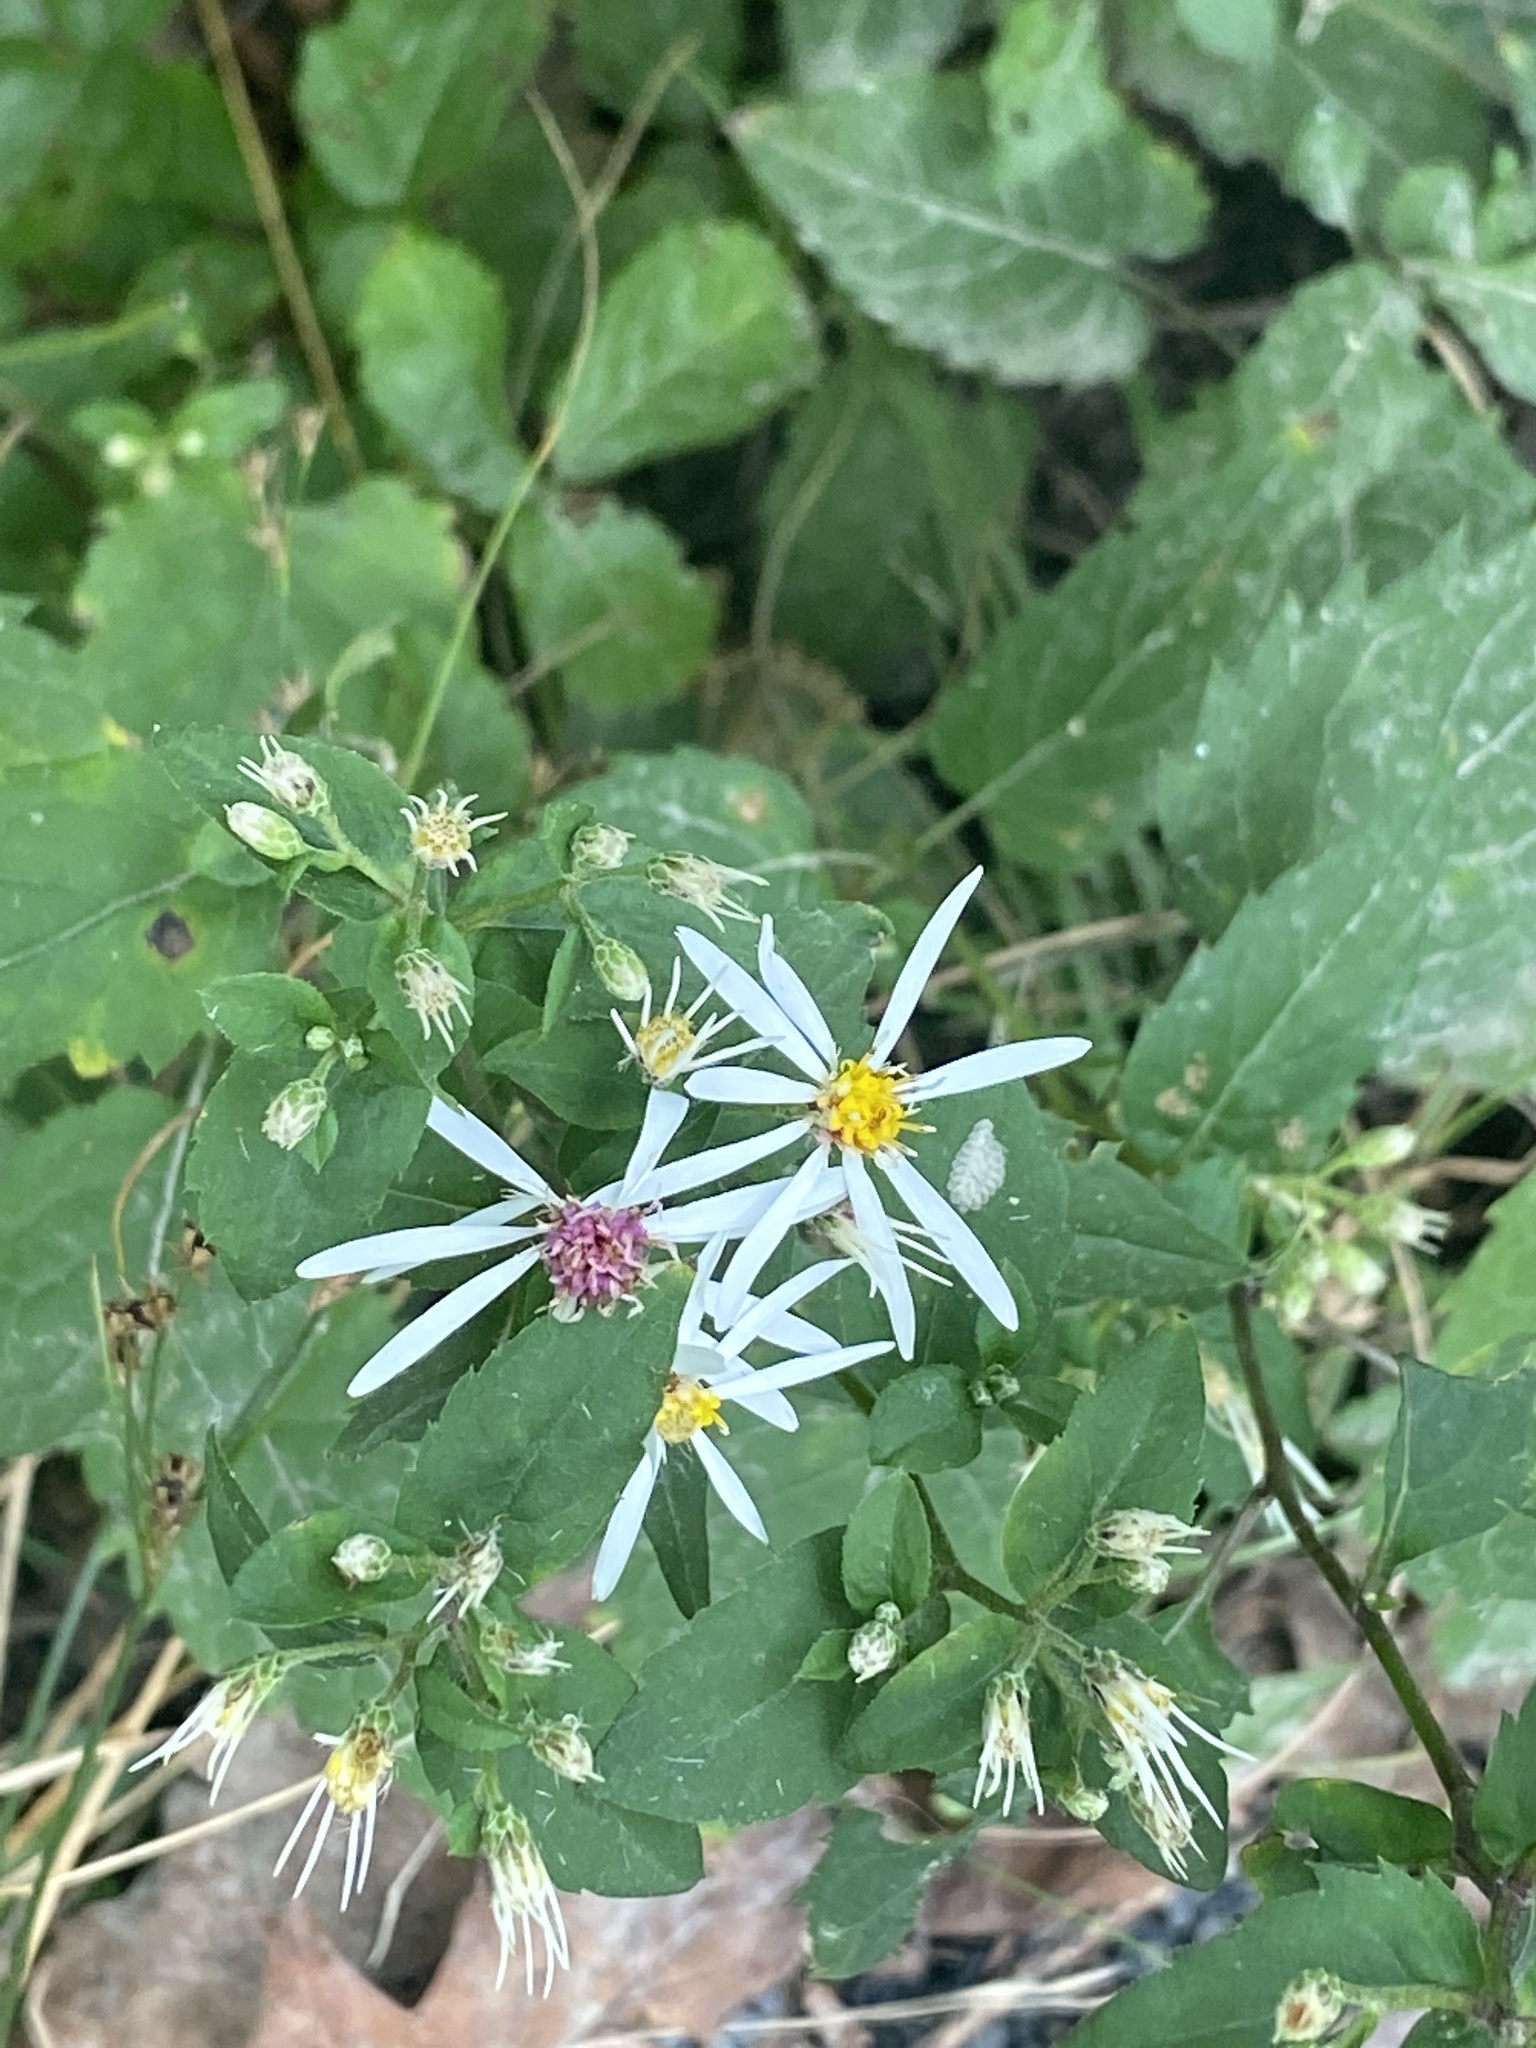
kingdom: Plantae
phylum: Tracheophyta
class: Magnoliopsida
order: Asterales
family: Asteraceae
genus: Eurybia
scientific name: Eurybia divaricata
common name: White wood aster
